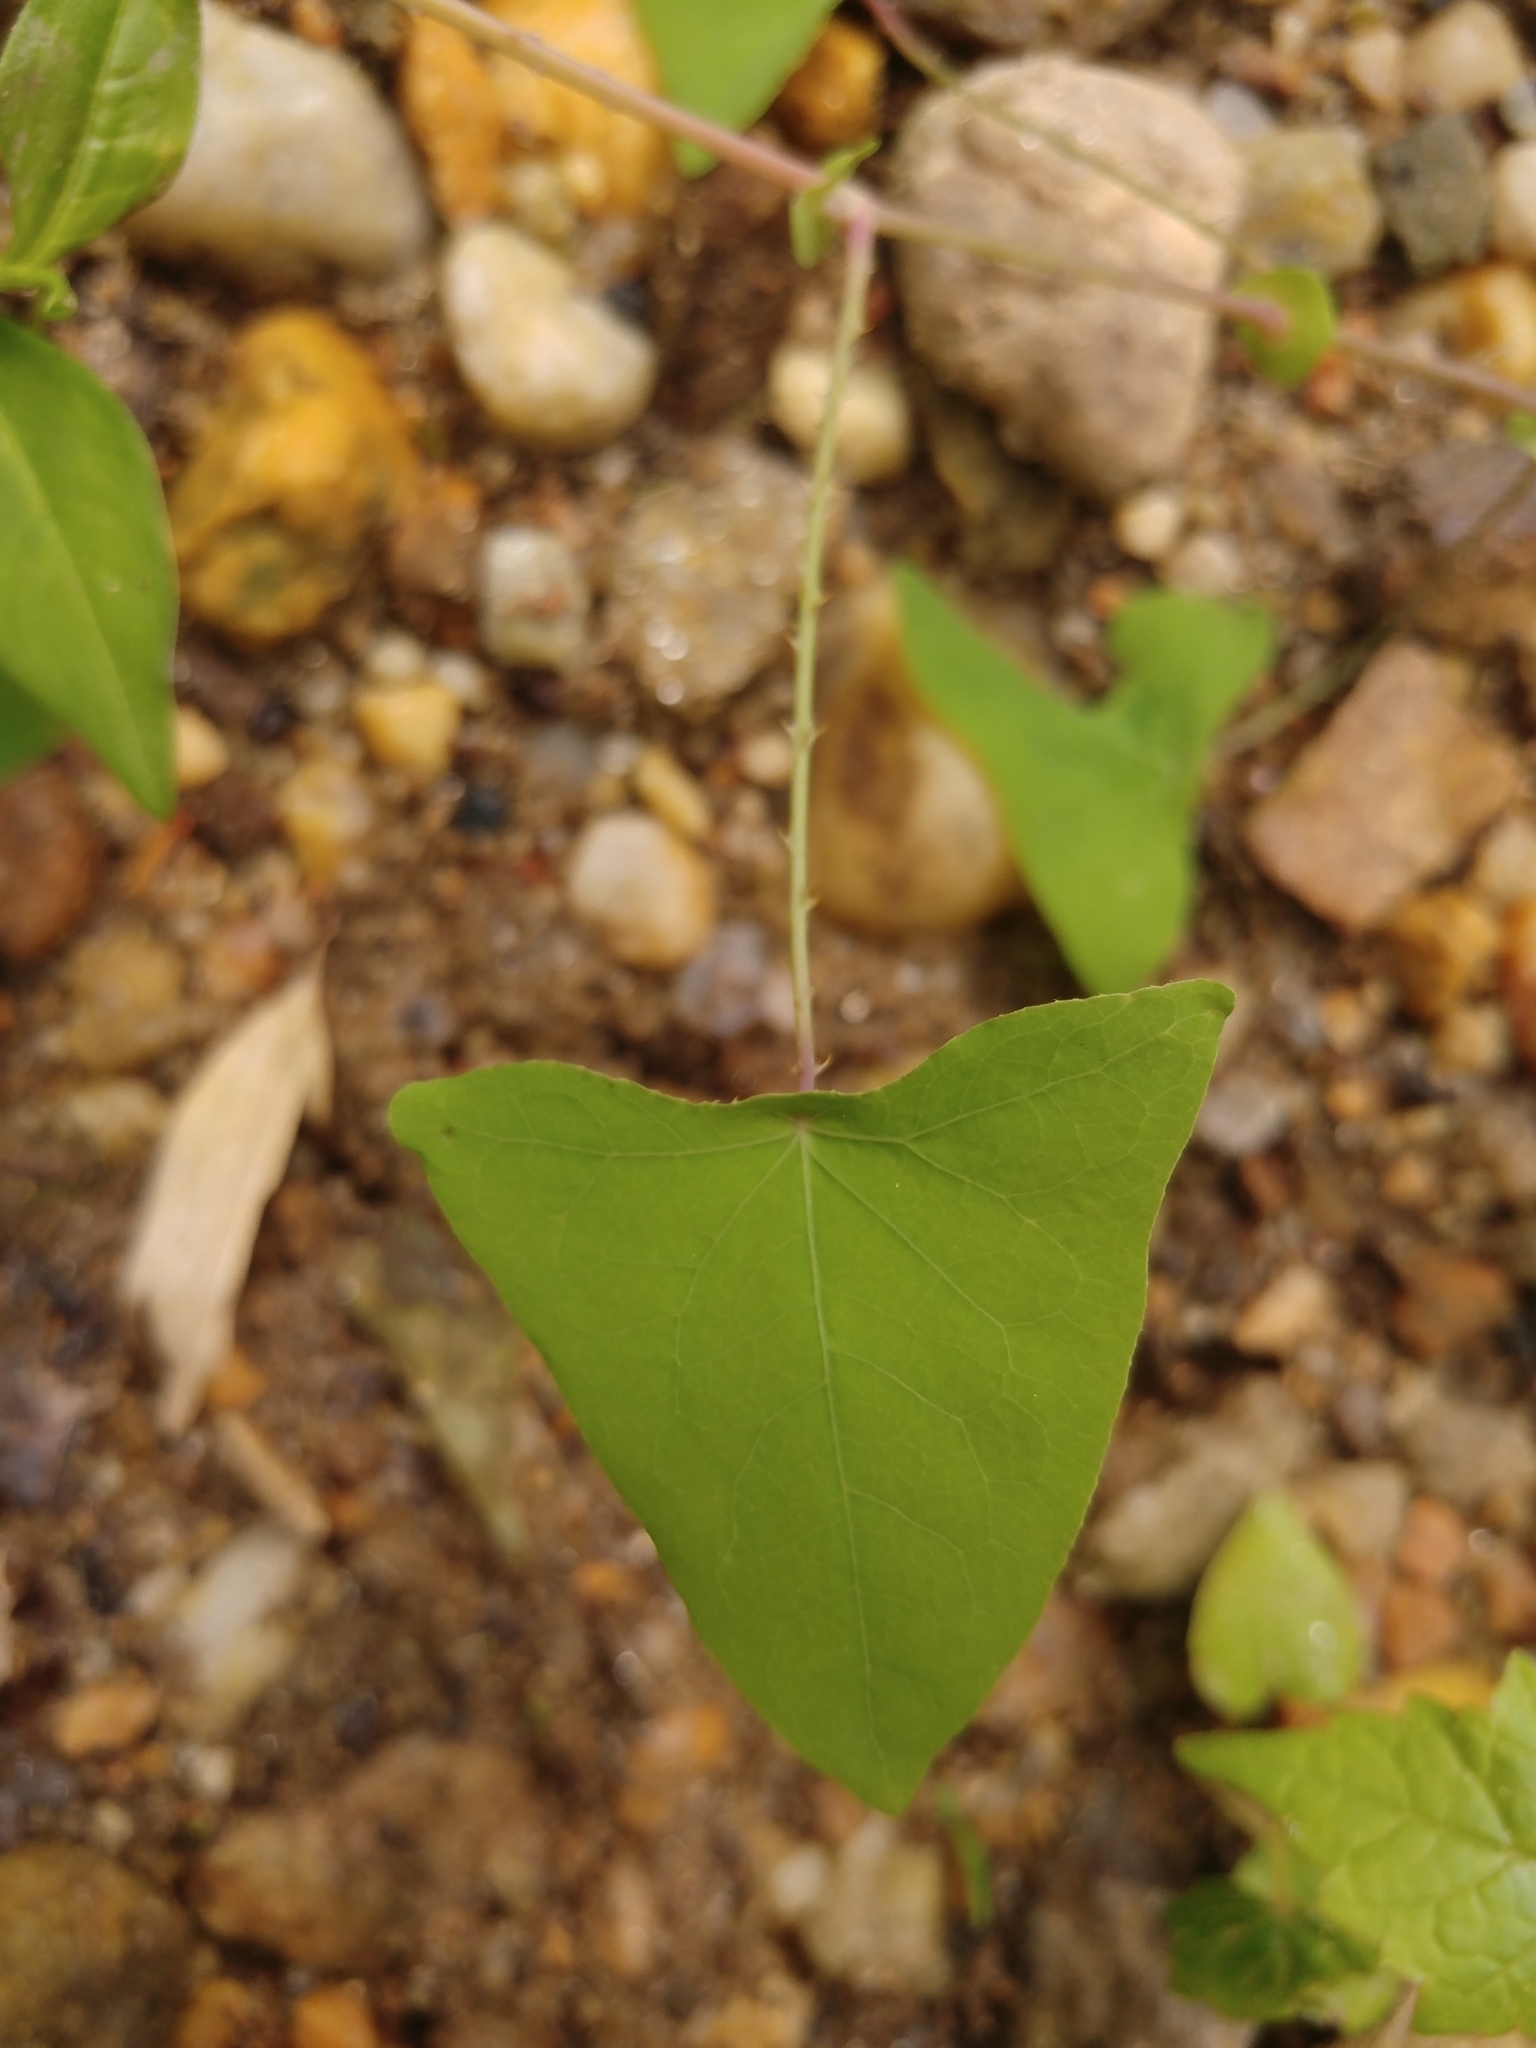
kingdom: Plantae
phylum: Tracheophyta
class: Magnoliopsida
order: Caryophyllales
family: Polygonaceae
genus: Persicaria
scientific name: Persicaria perfoliata
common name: Asiatic tearthumb
